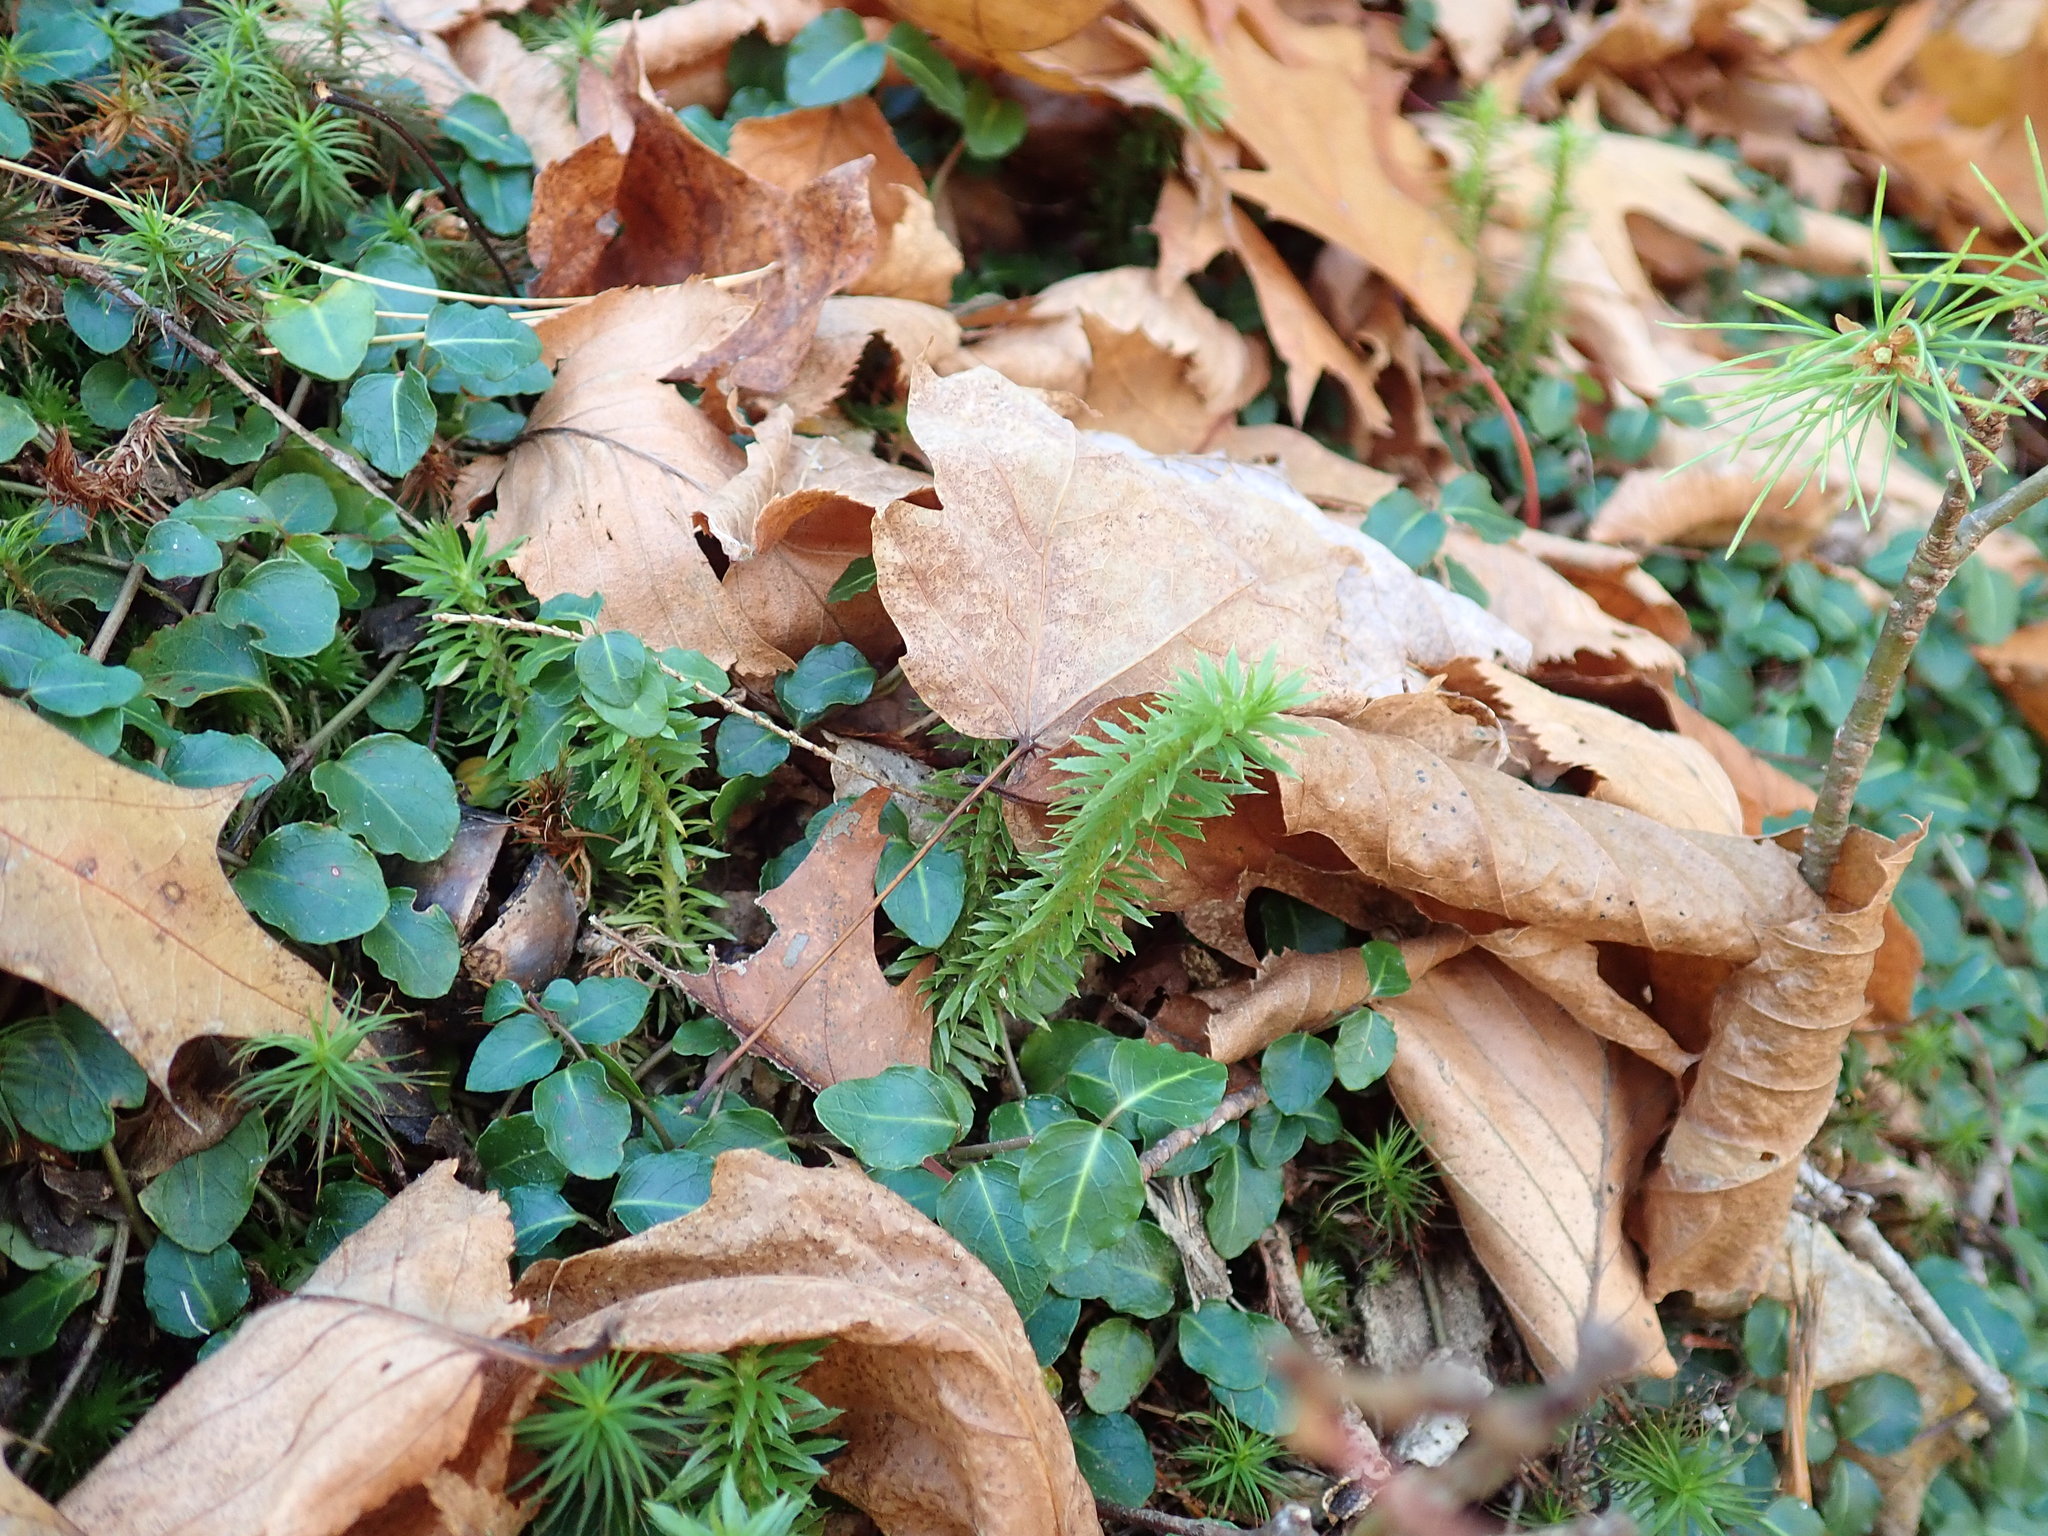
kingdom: Plantae
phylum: Tracheophyta
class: Lycopodiopsida
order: Lycopodiales
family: Lycopodiaceae
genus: Spinulum
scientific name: Spinulum annotinum
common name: Interrupted club-moss
